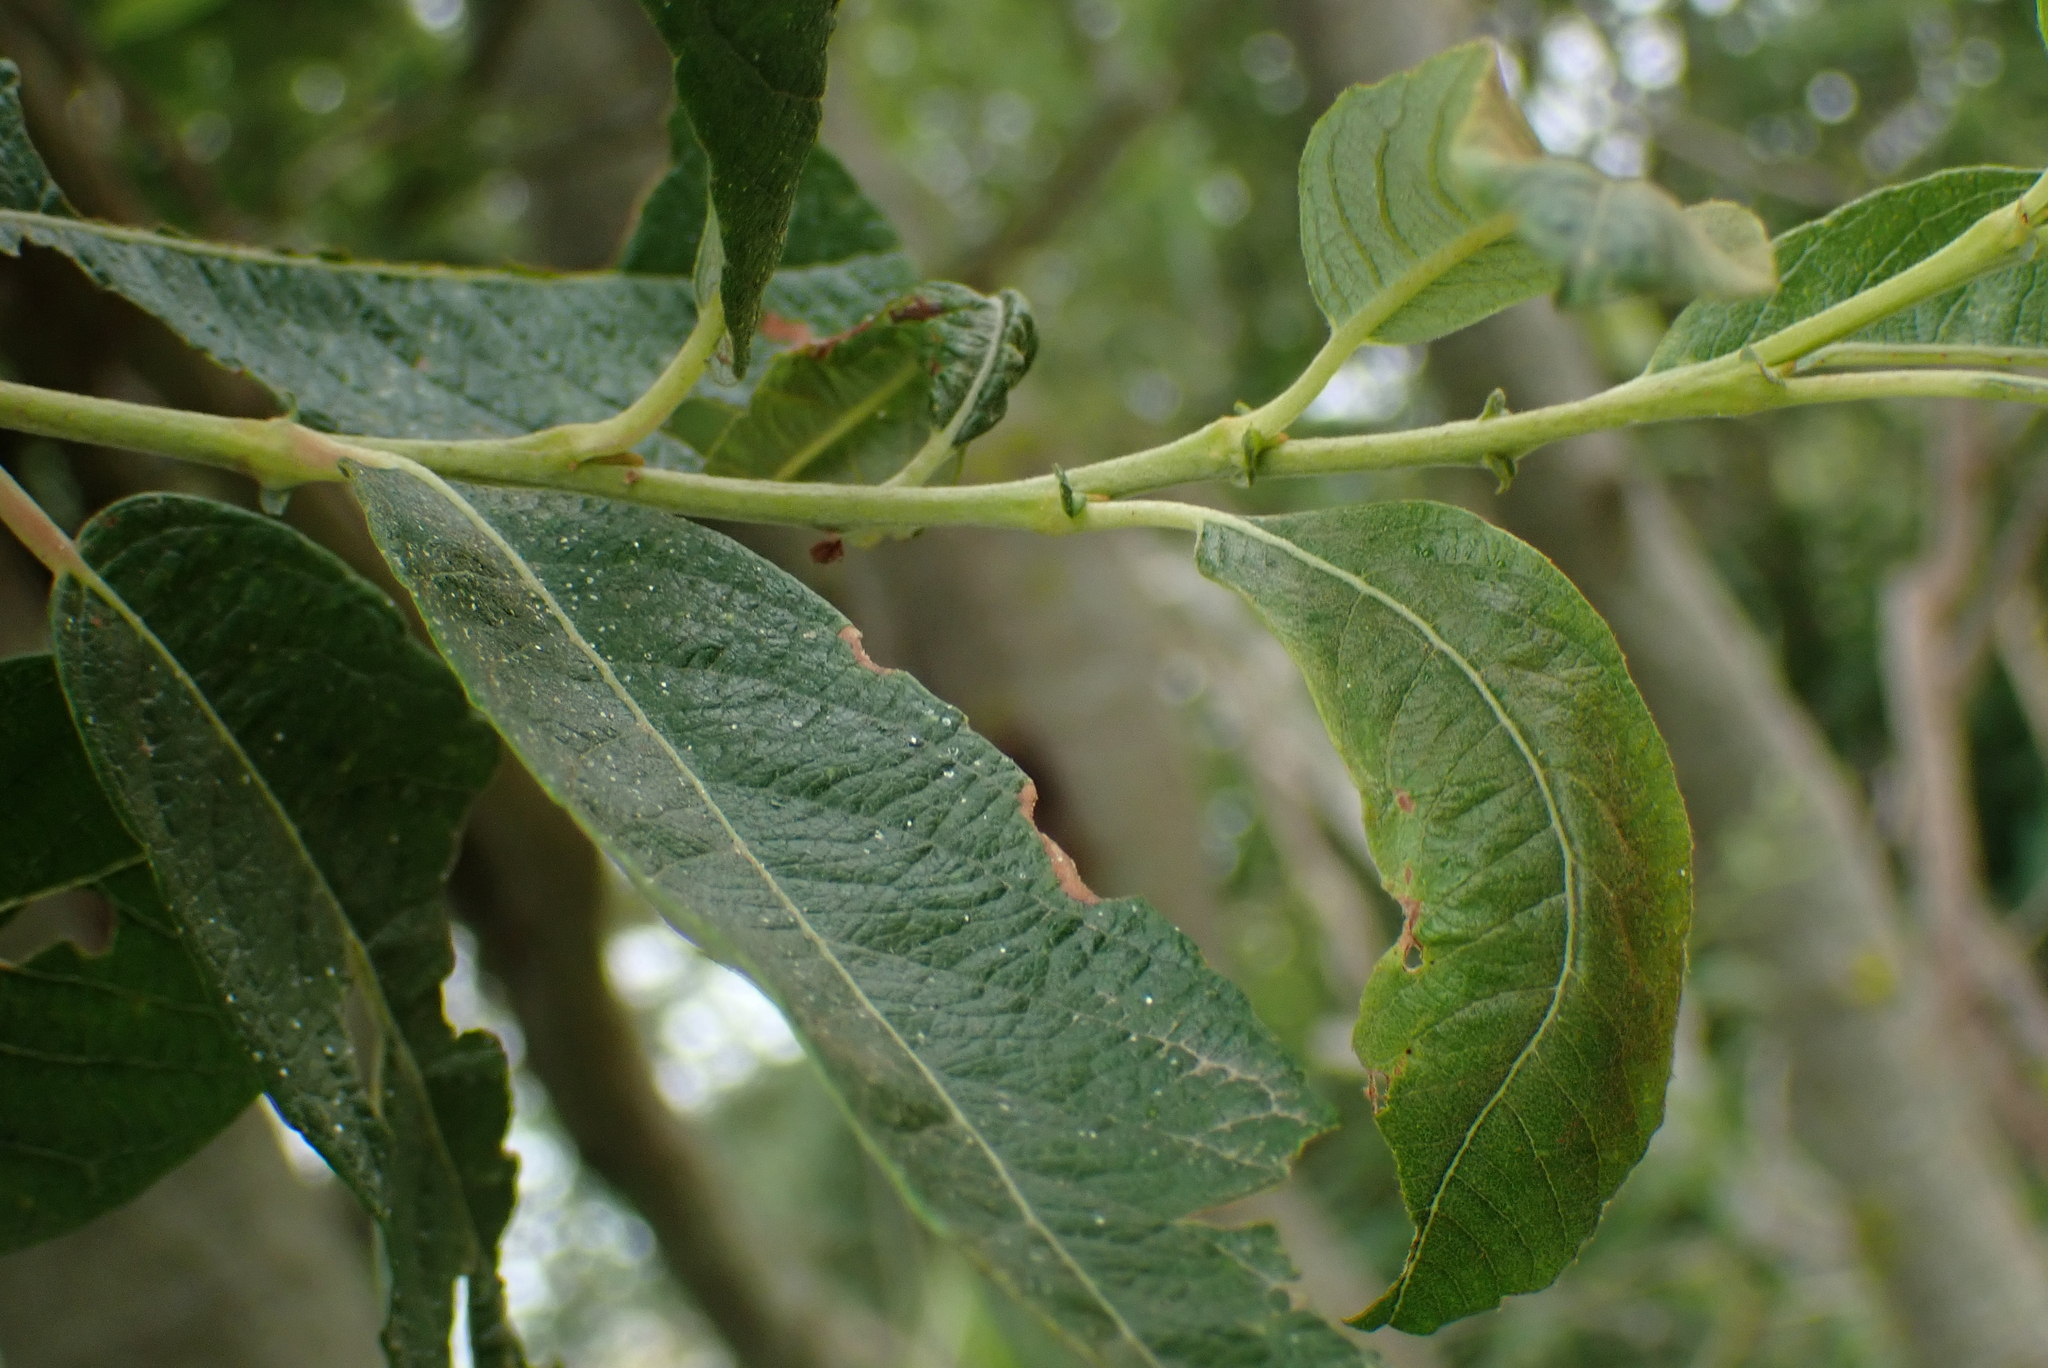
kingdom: Plantae
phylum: Tracheophyta
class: Magnoliopsida
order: Malpighiales
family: Salicaceae
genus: Salix
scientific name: Salix atrocinerea
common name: Rusty willow
